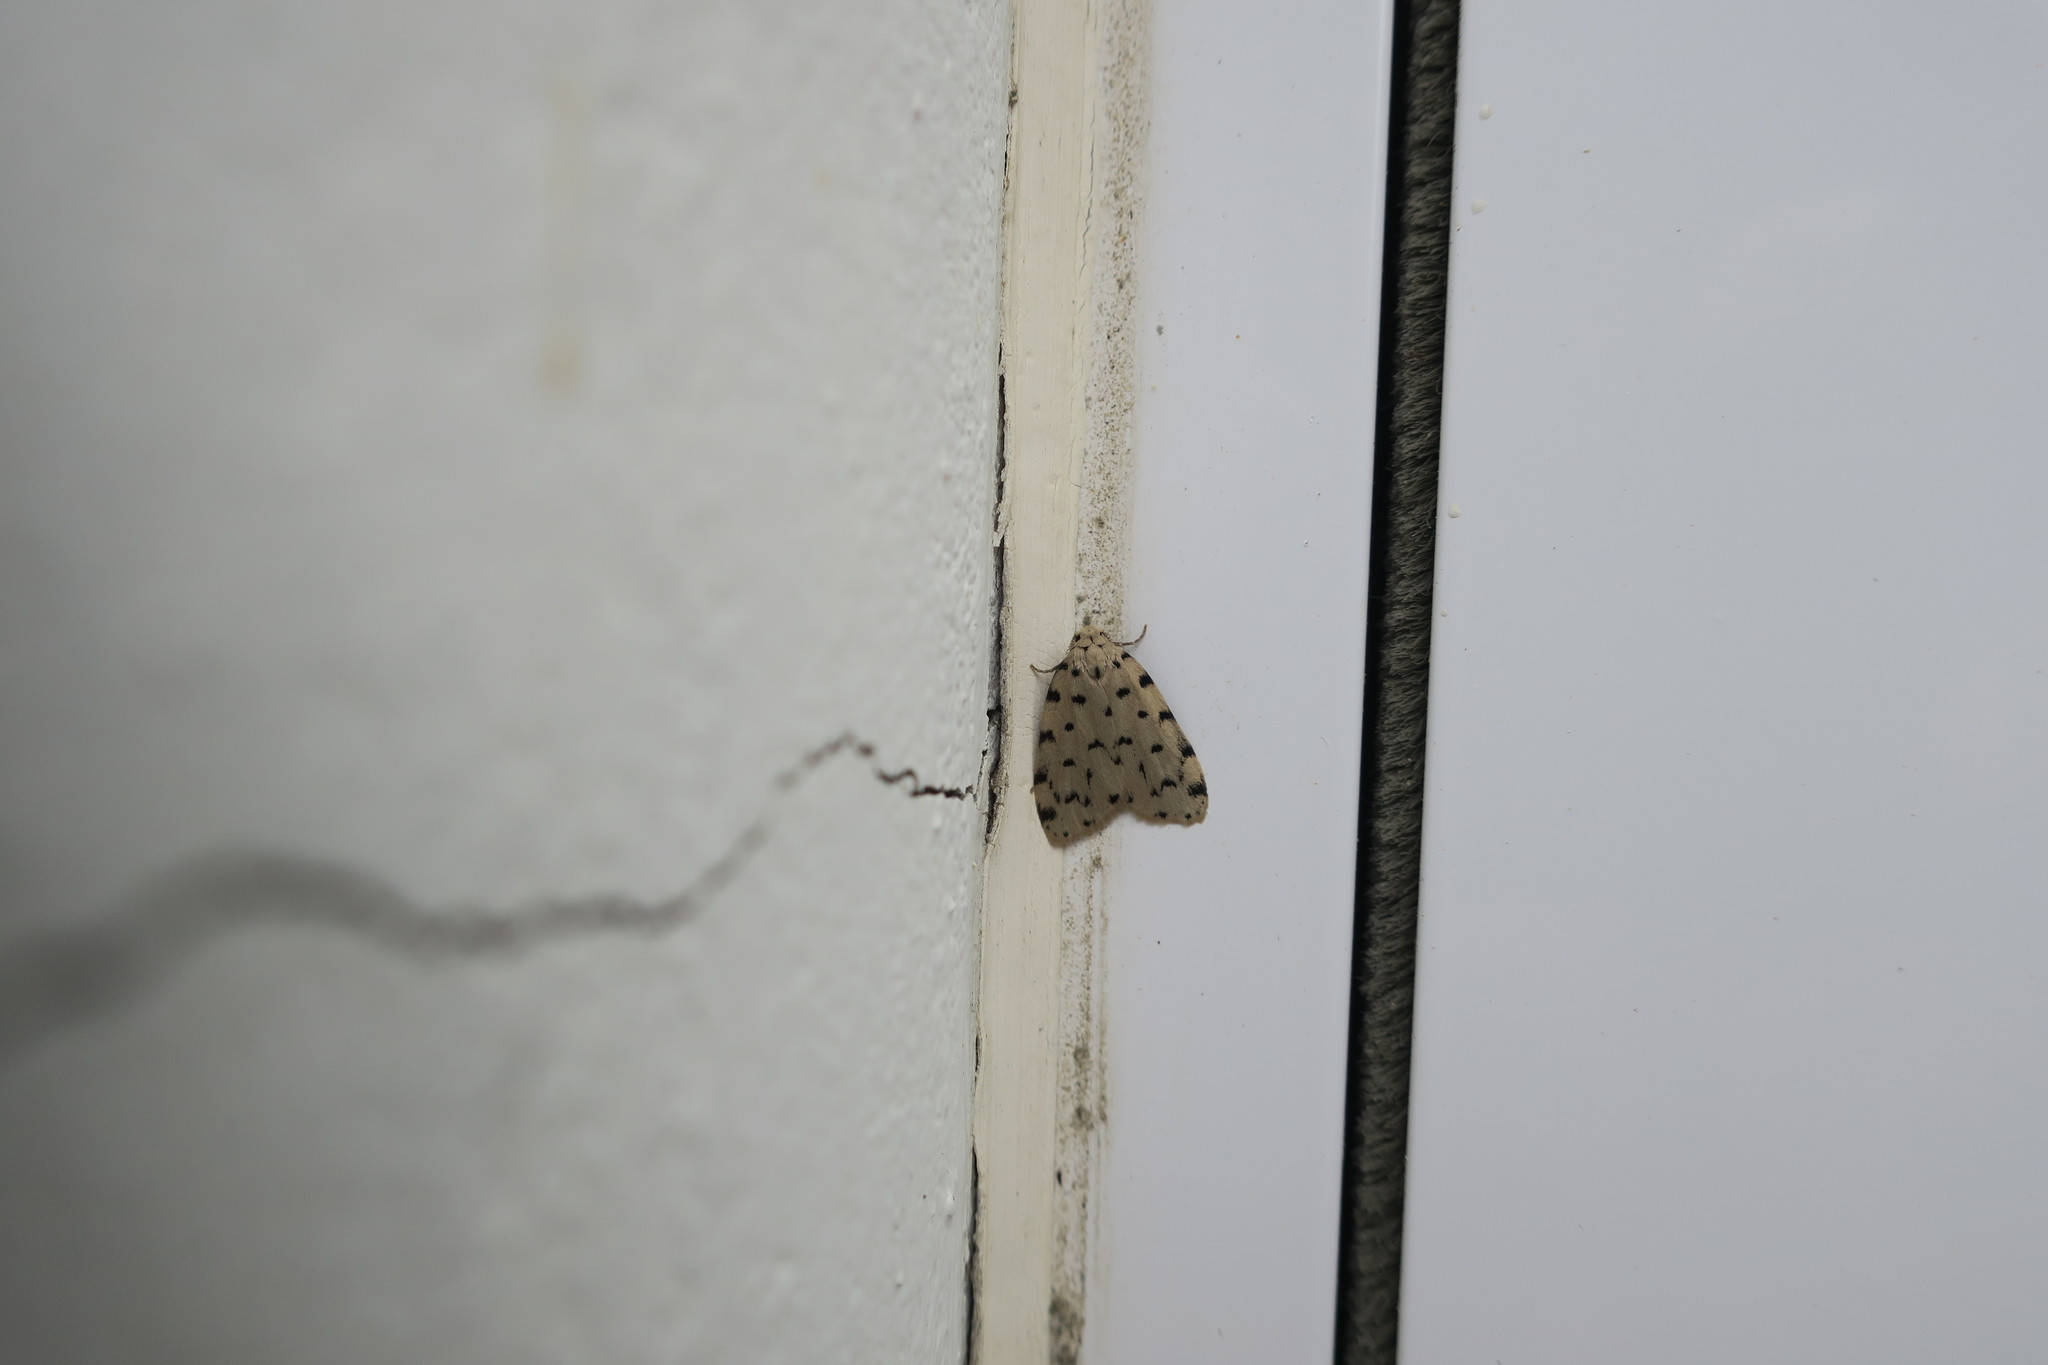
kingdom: Animalia
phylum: Arthropoda
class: Insecta
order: Lepidoptera
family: Erebidae
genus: Siccia
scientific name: Siccia caffra
